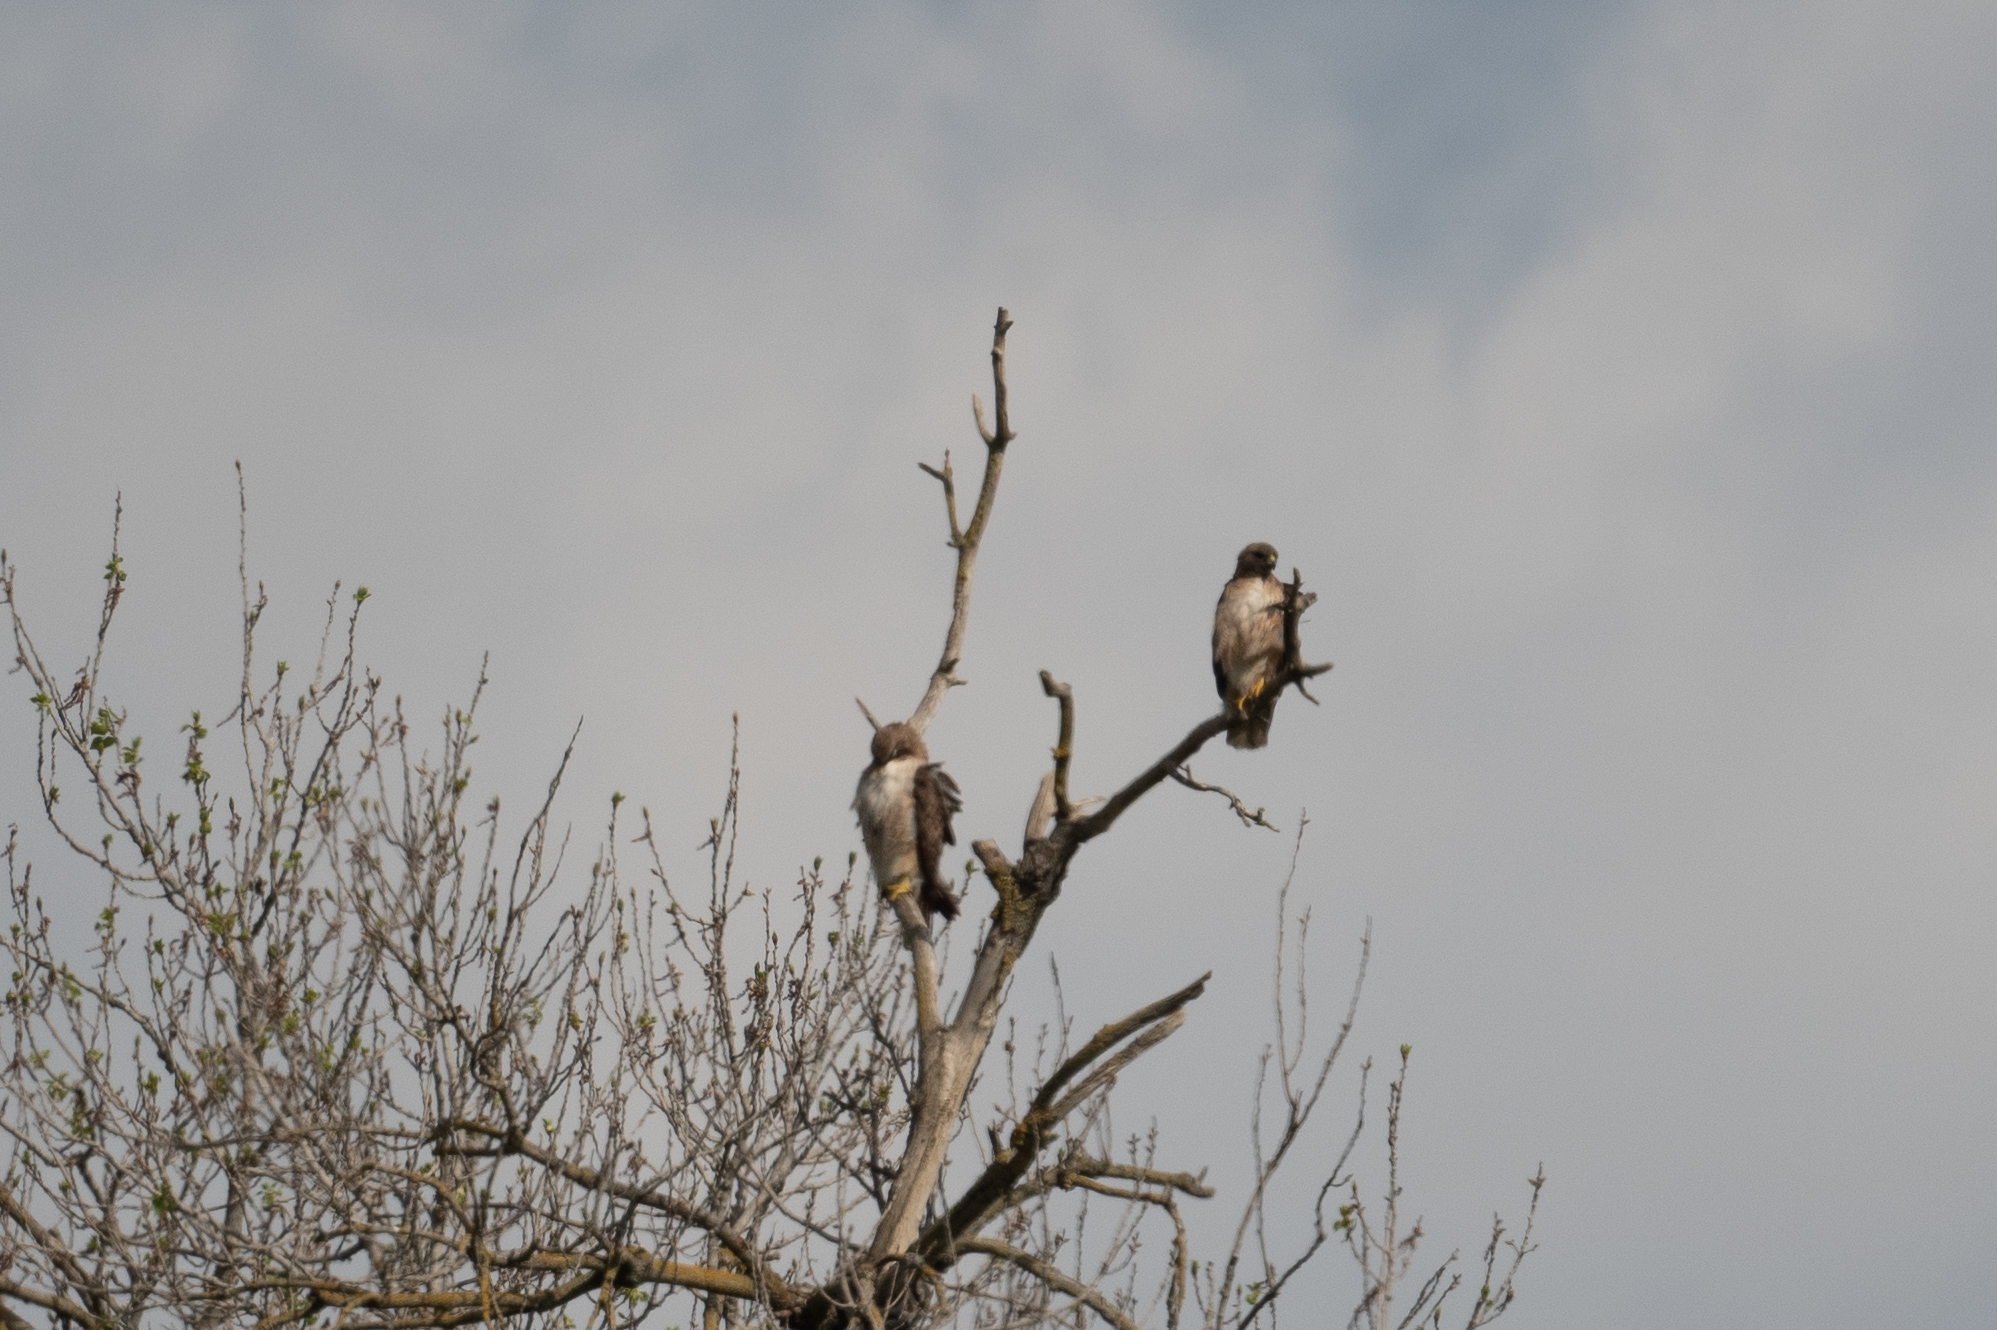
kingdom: Animalia
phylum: Chordata
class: Aves
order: Accipitriformes
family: Accipitridae
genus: Buteo
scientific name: Buteo jamaicensis
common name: Red-tailed hawk
